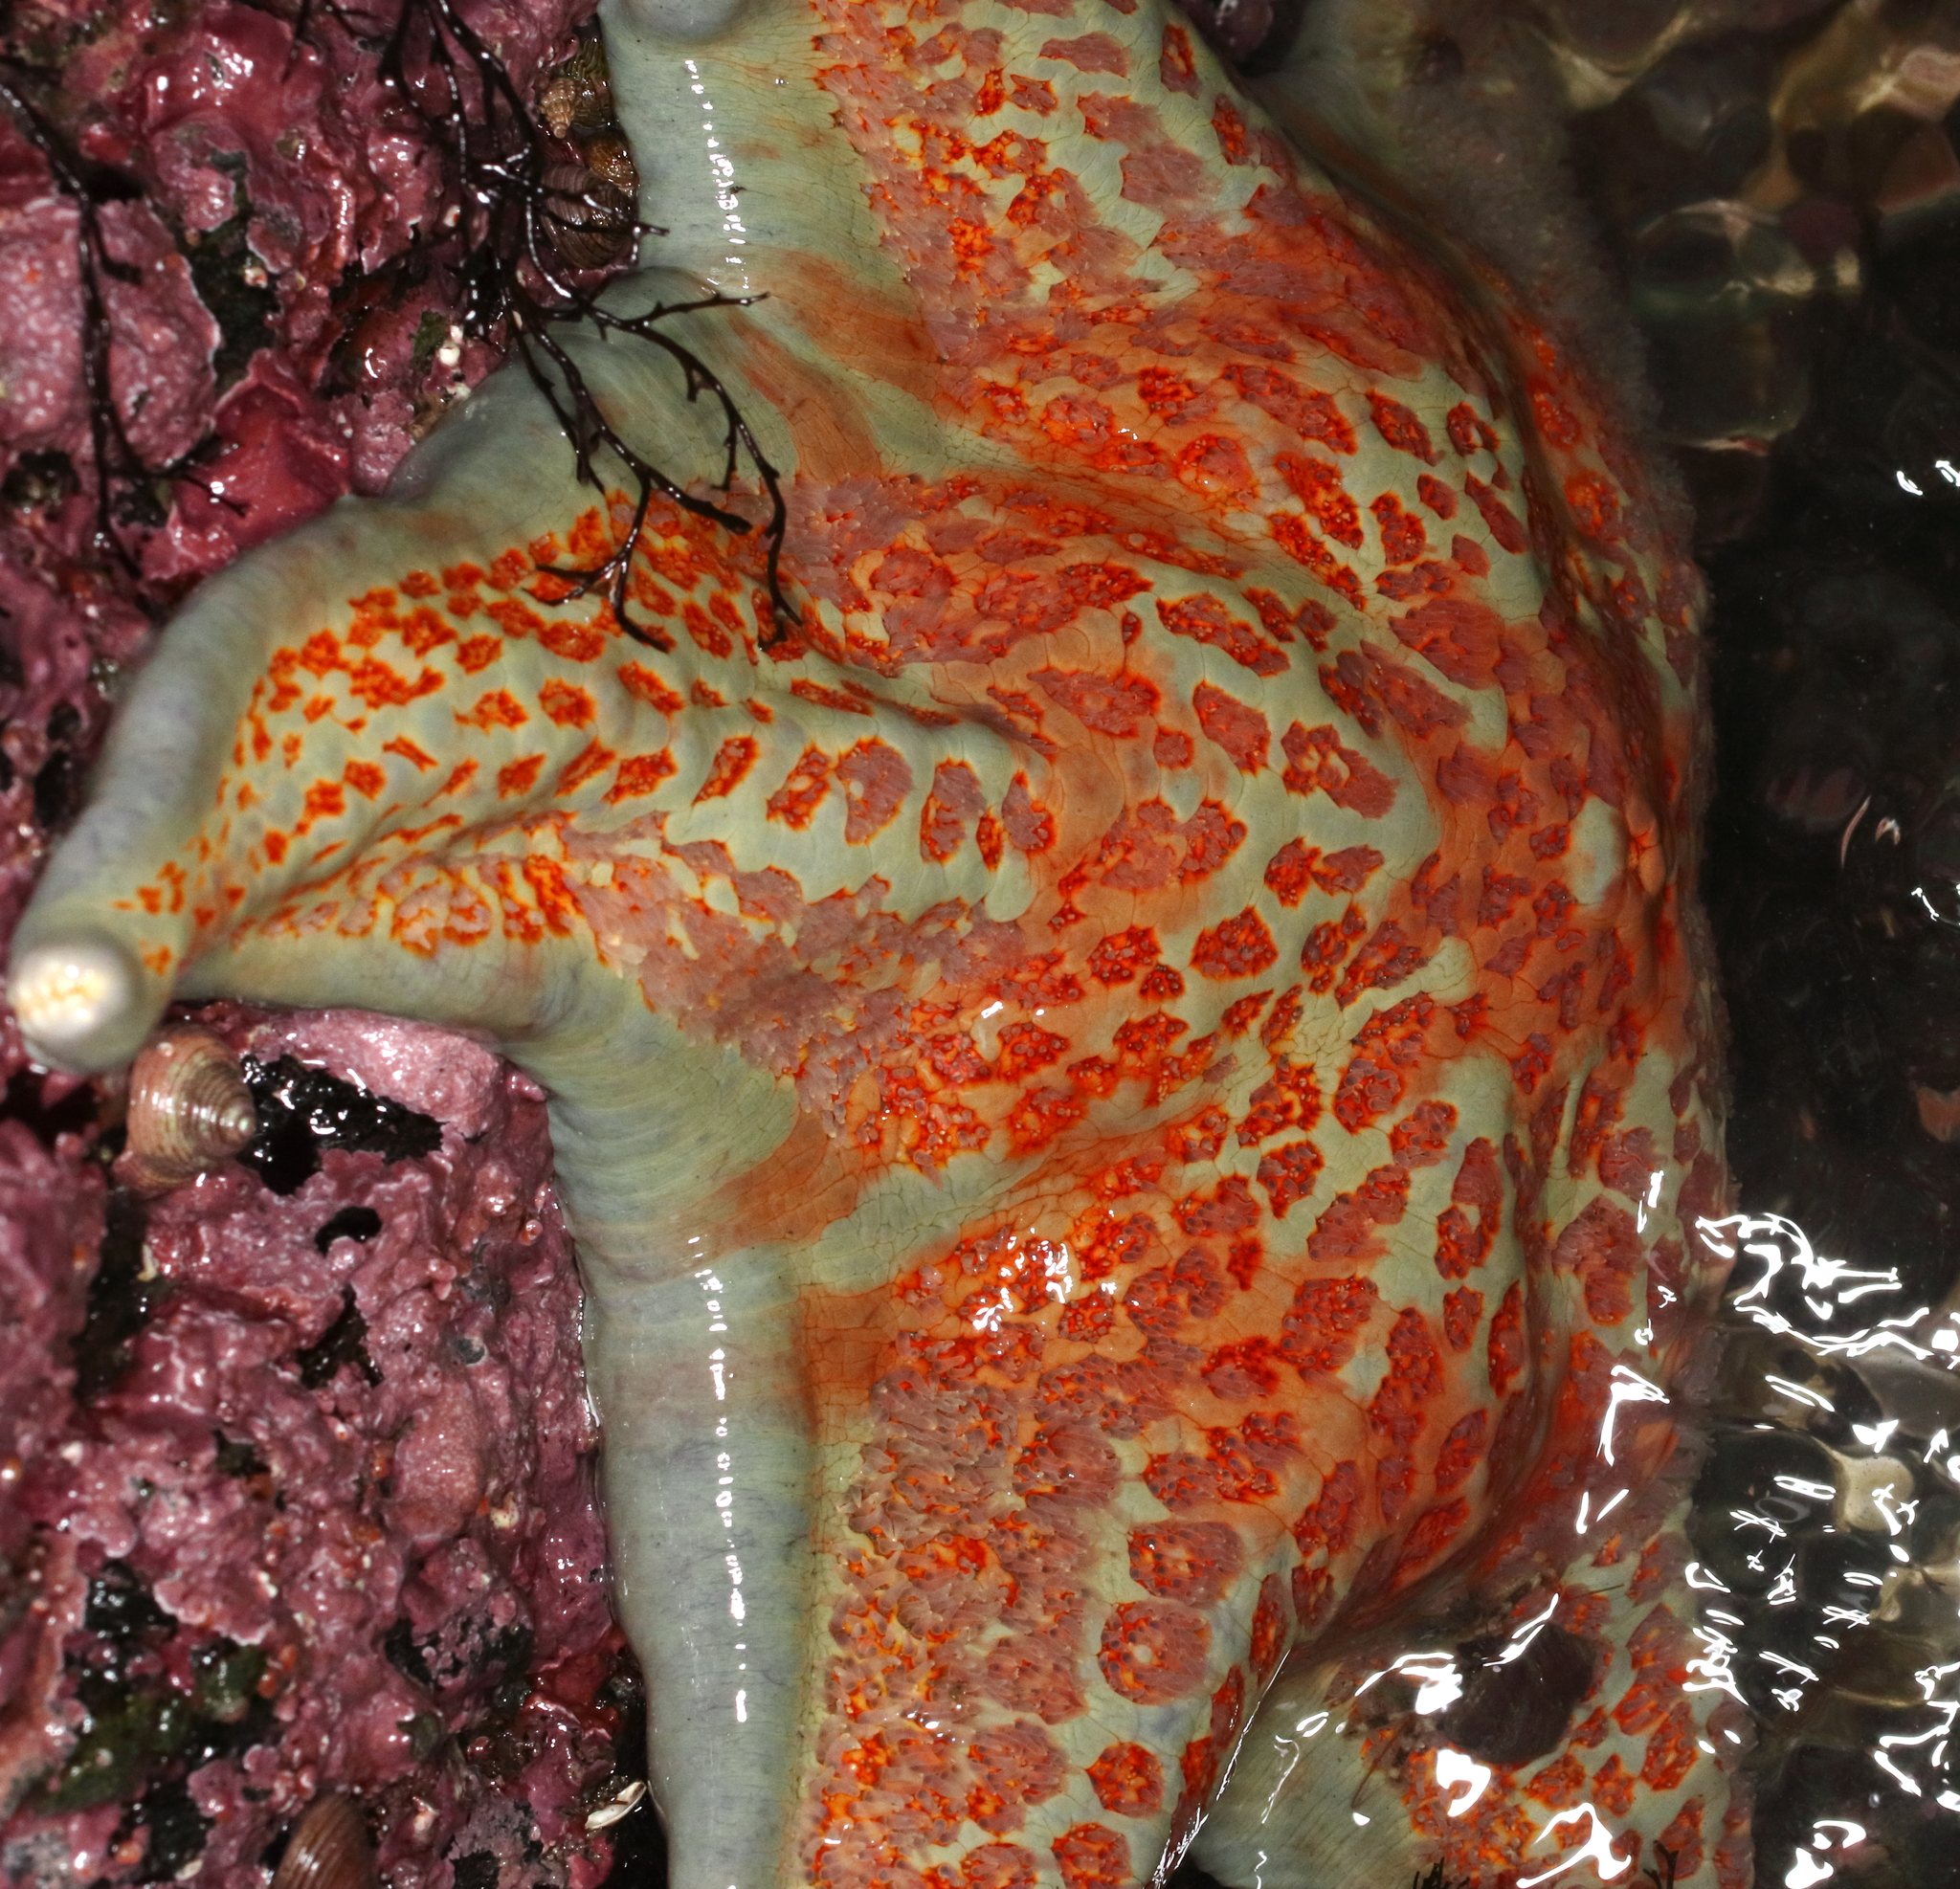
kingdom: Animalia
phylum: Echinodermata
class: Asteroidea
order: Valvatida
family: Asteropseidae
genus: Dermasterias
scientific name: Dermasterias imbricata
